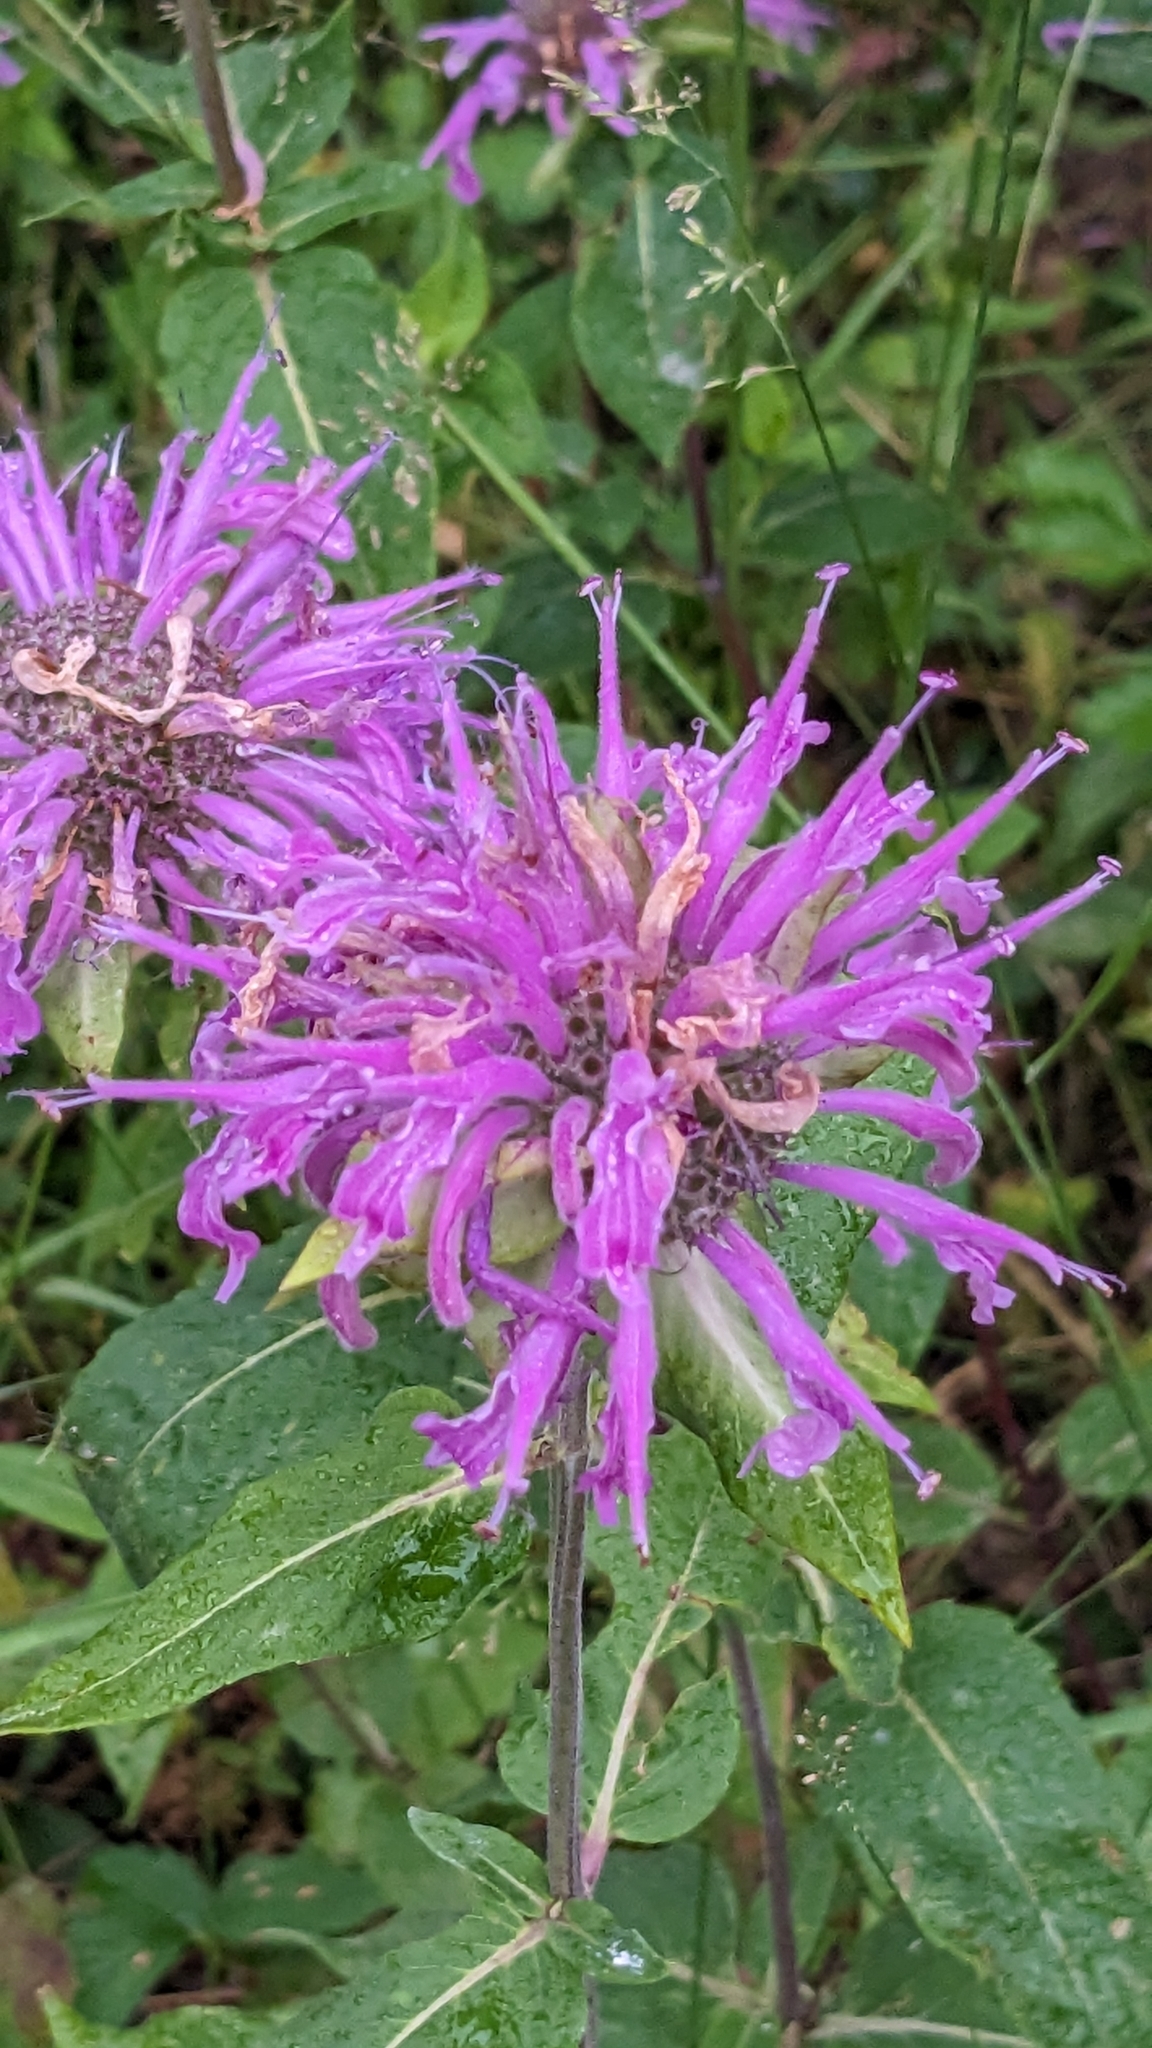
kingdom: Plantae
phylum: Tracheophyta
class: Magnoliopsida
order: Lamiales
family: Lamiaceae
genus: Monarda
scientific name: Monarda fistulosa
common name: Purple beebalm
